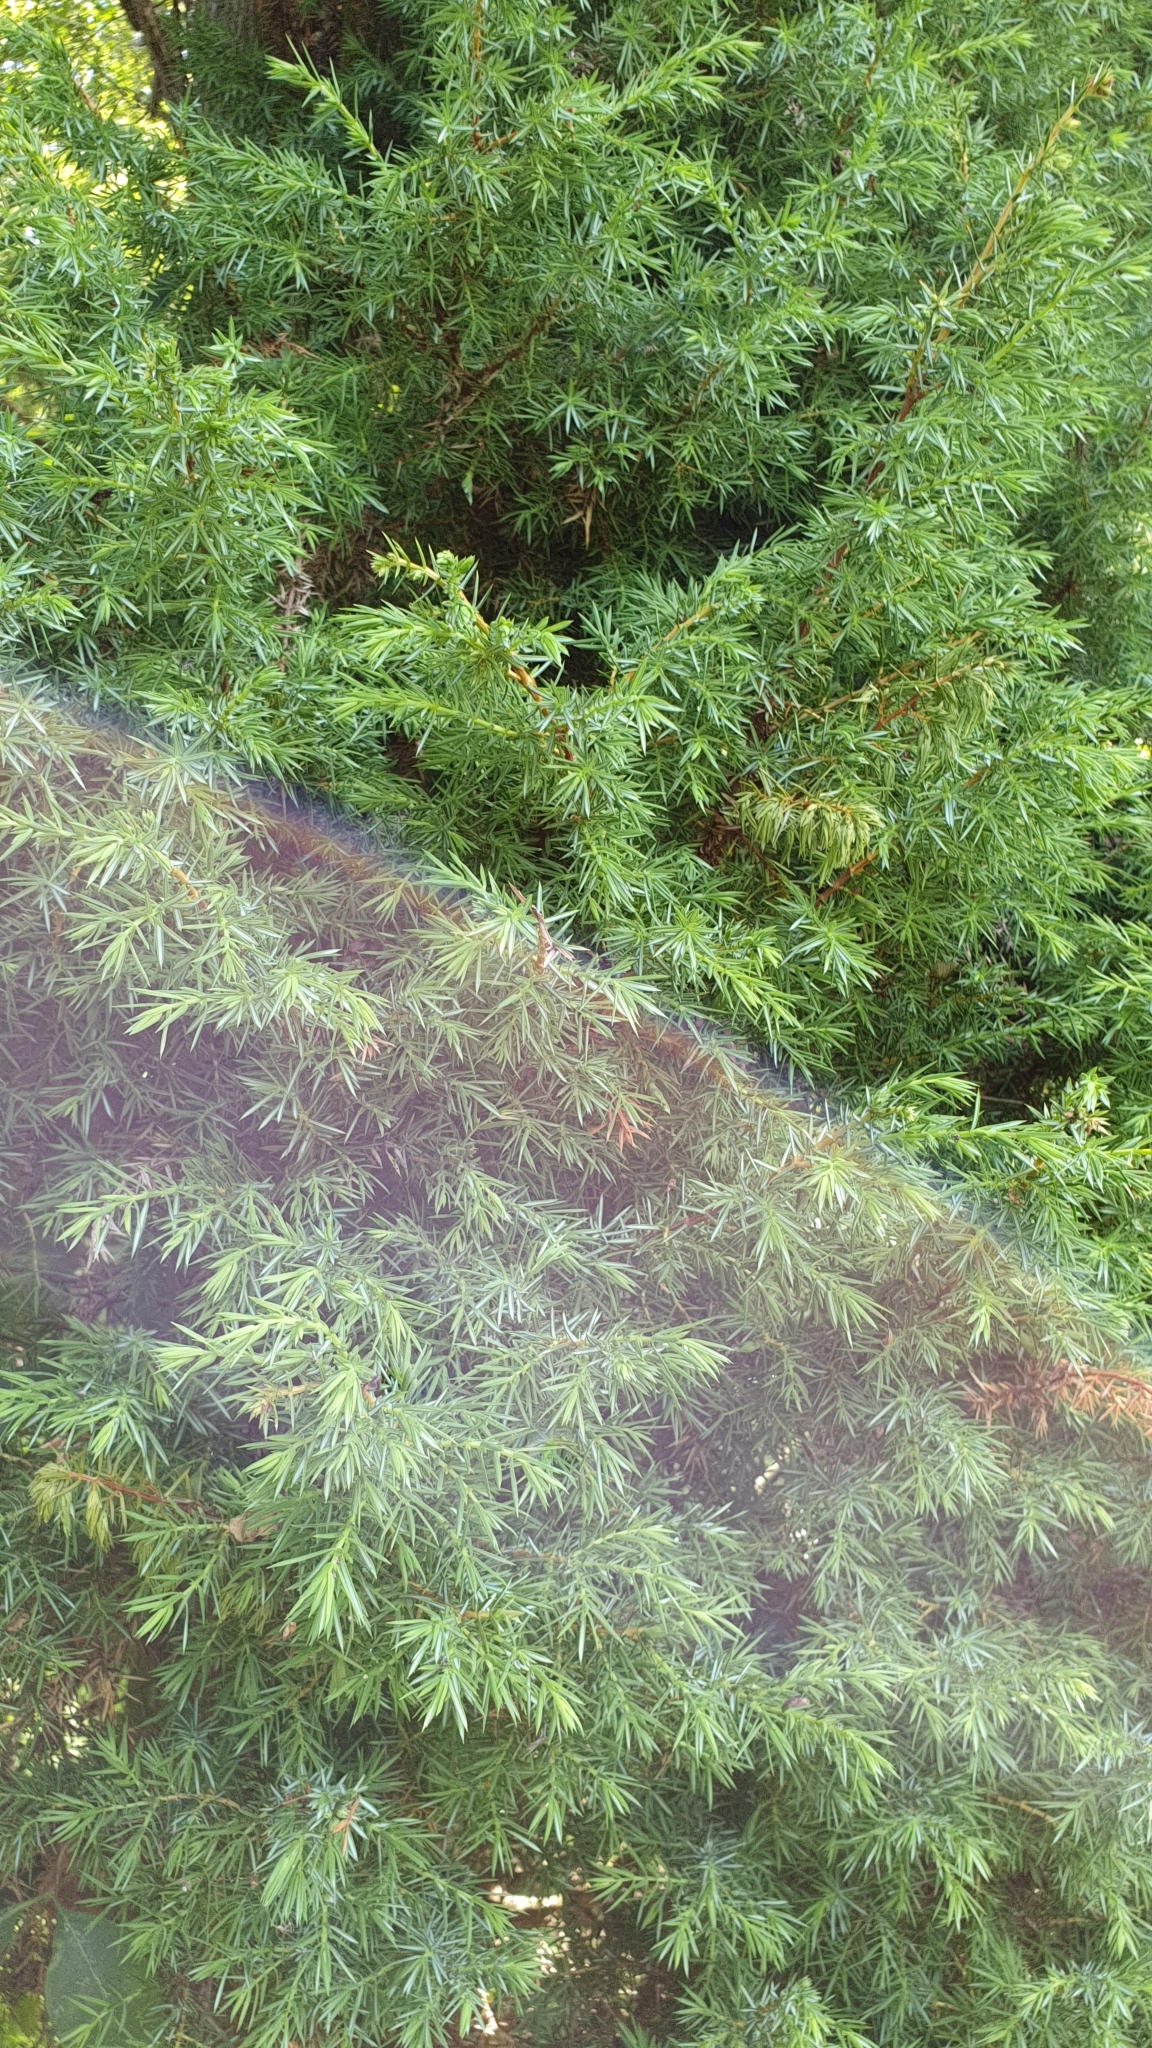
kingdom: Plantae
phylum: Tracheophyta
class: Pinopsida
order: Pinales
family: Cupressaceae
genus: Juniperus
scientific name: Juniperus communis
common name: Common juniper
